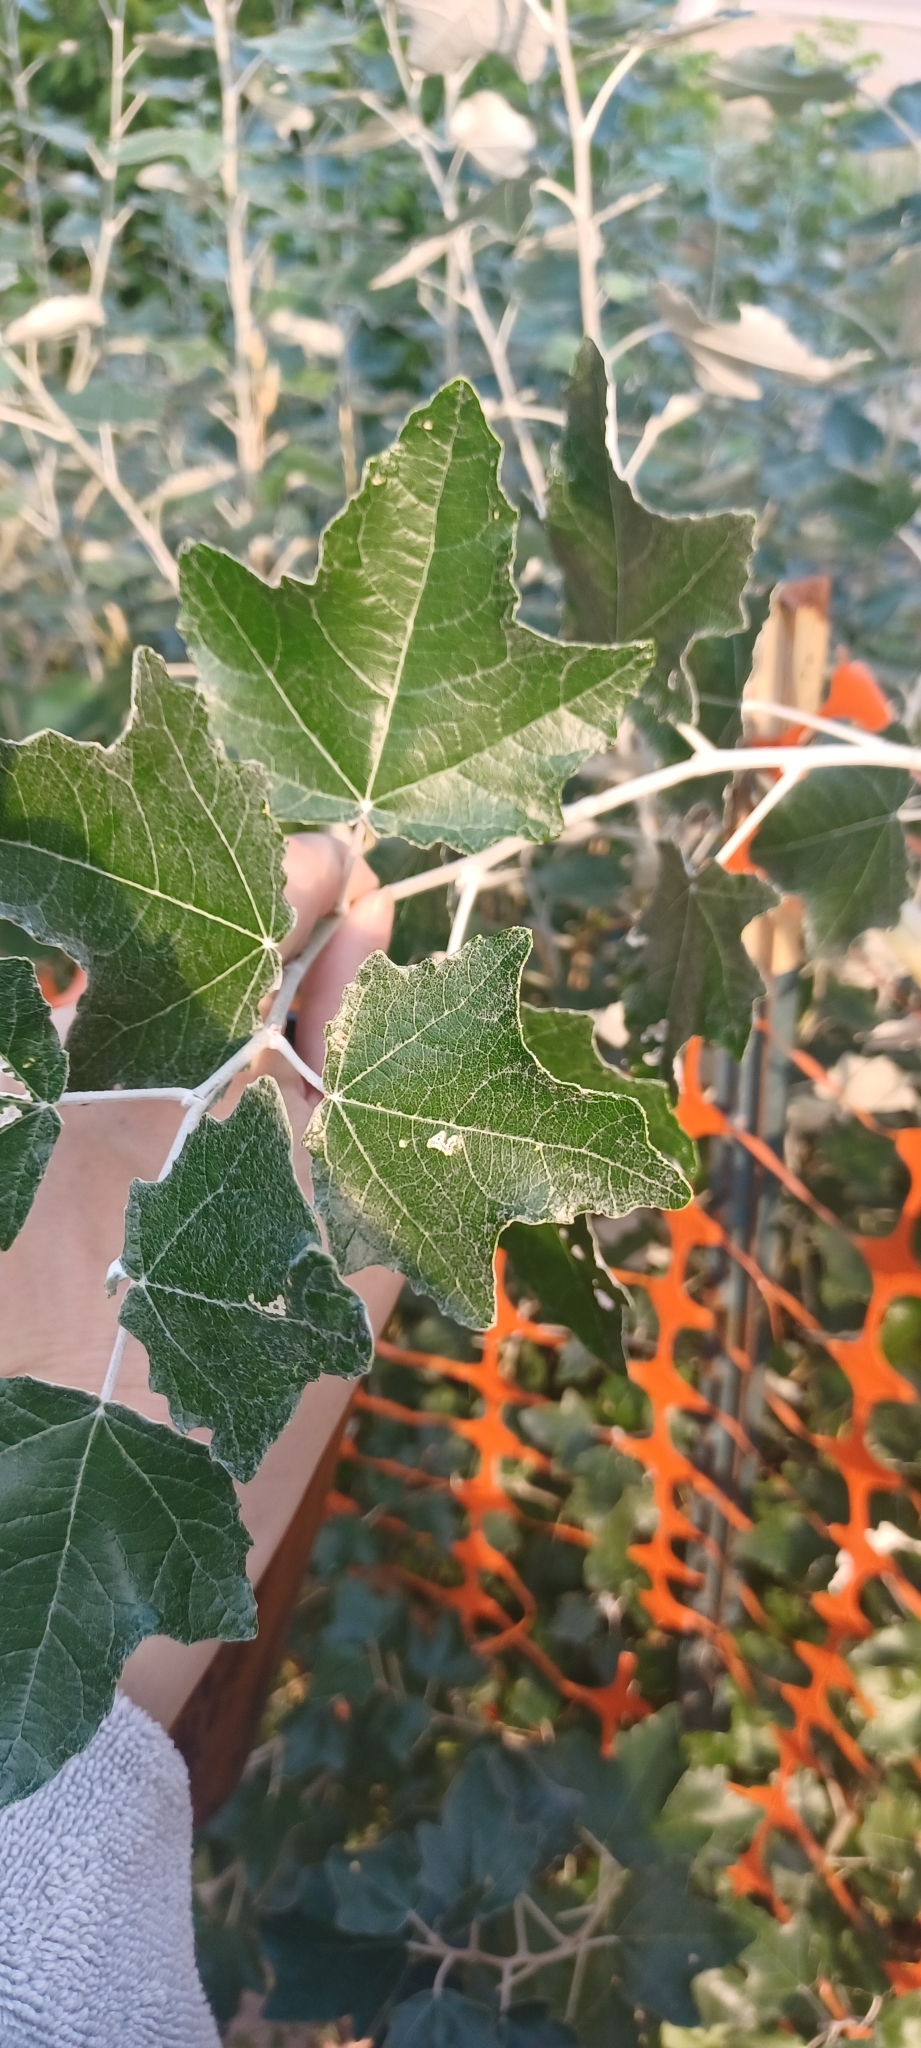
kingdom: Plantae
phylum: Tracheophyta
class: Magnoliopsida
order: Malpighiales
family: Salicaceae
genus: Populus
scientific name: Populus alba
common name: White poplar
